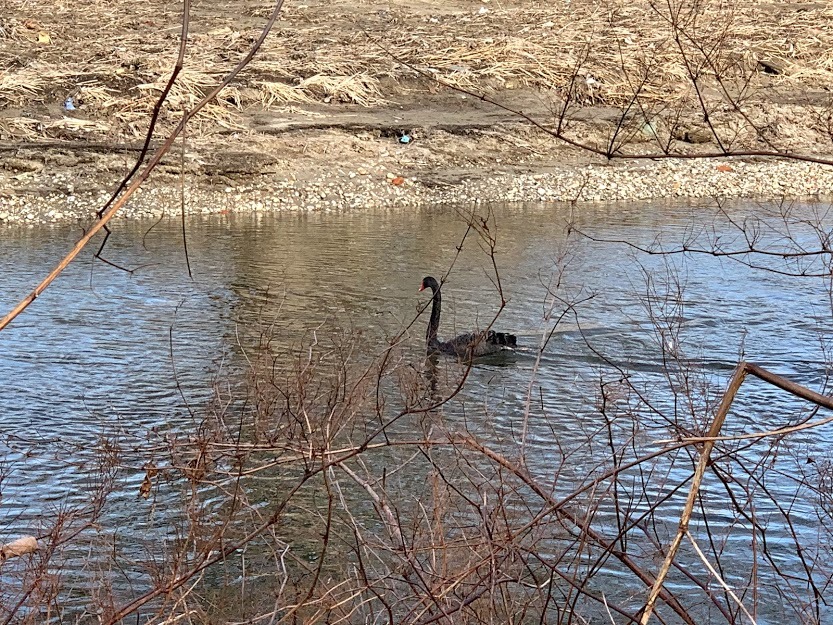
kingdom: Animalia
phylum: Chordata
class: Aves
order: Anseriformes
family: Anatidae
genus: Cygnus
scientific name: Cygnus atratus
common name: Black swan
